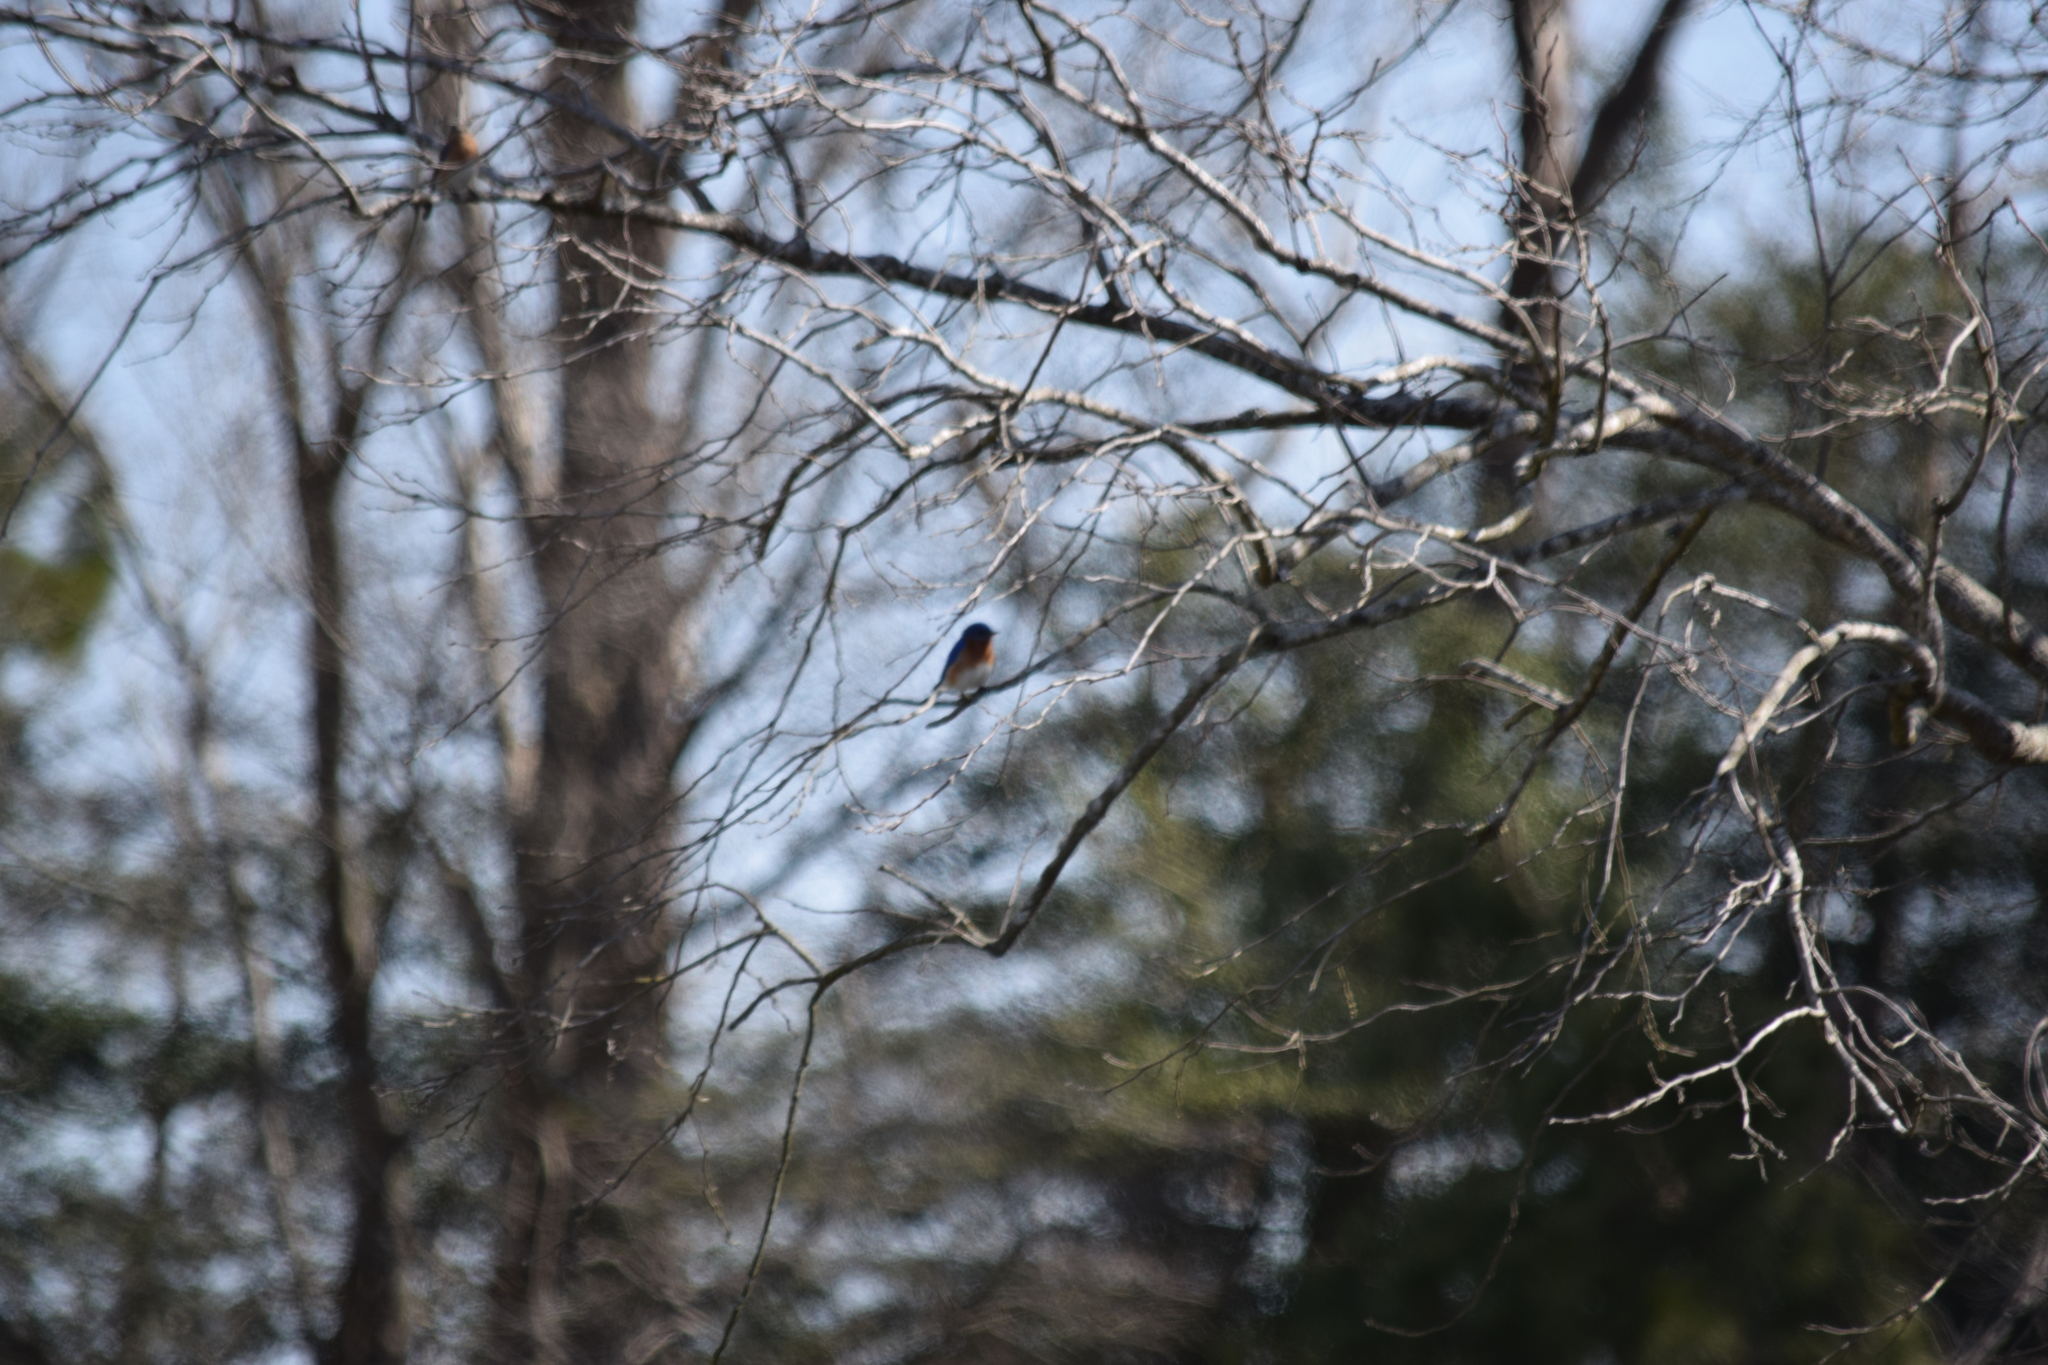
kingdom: Animalia
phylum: Chordata
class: Aves
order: Passeriformes
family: Turdidae
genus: Sialia
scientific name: Sialia sialis
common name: Eastern bluebird
